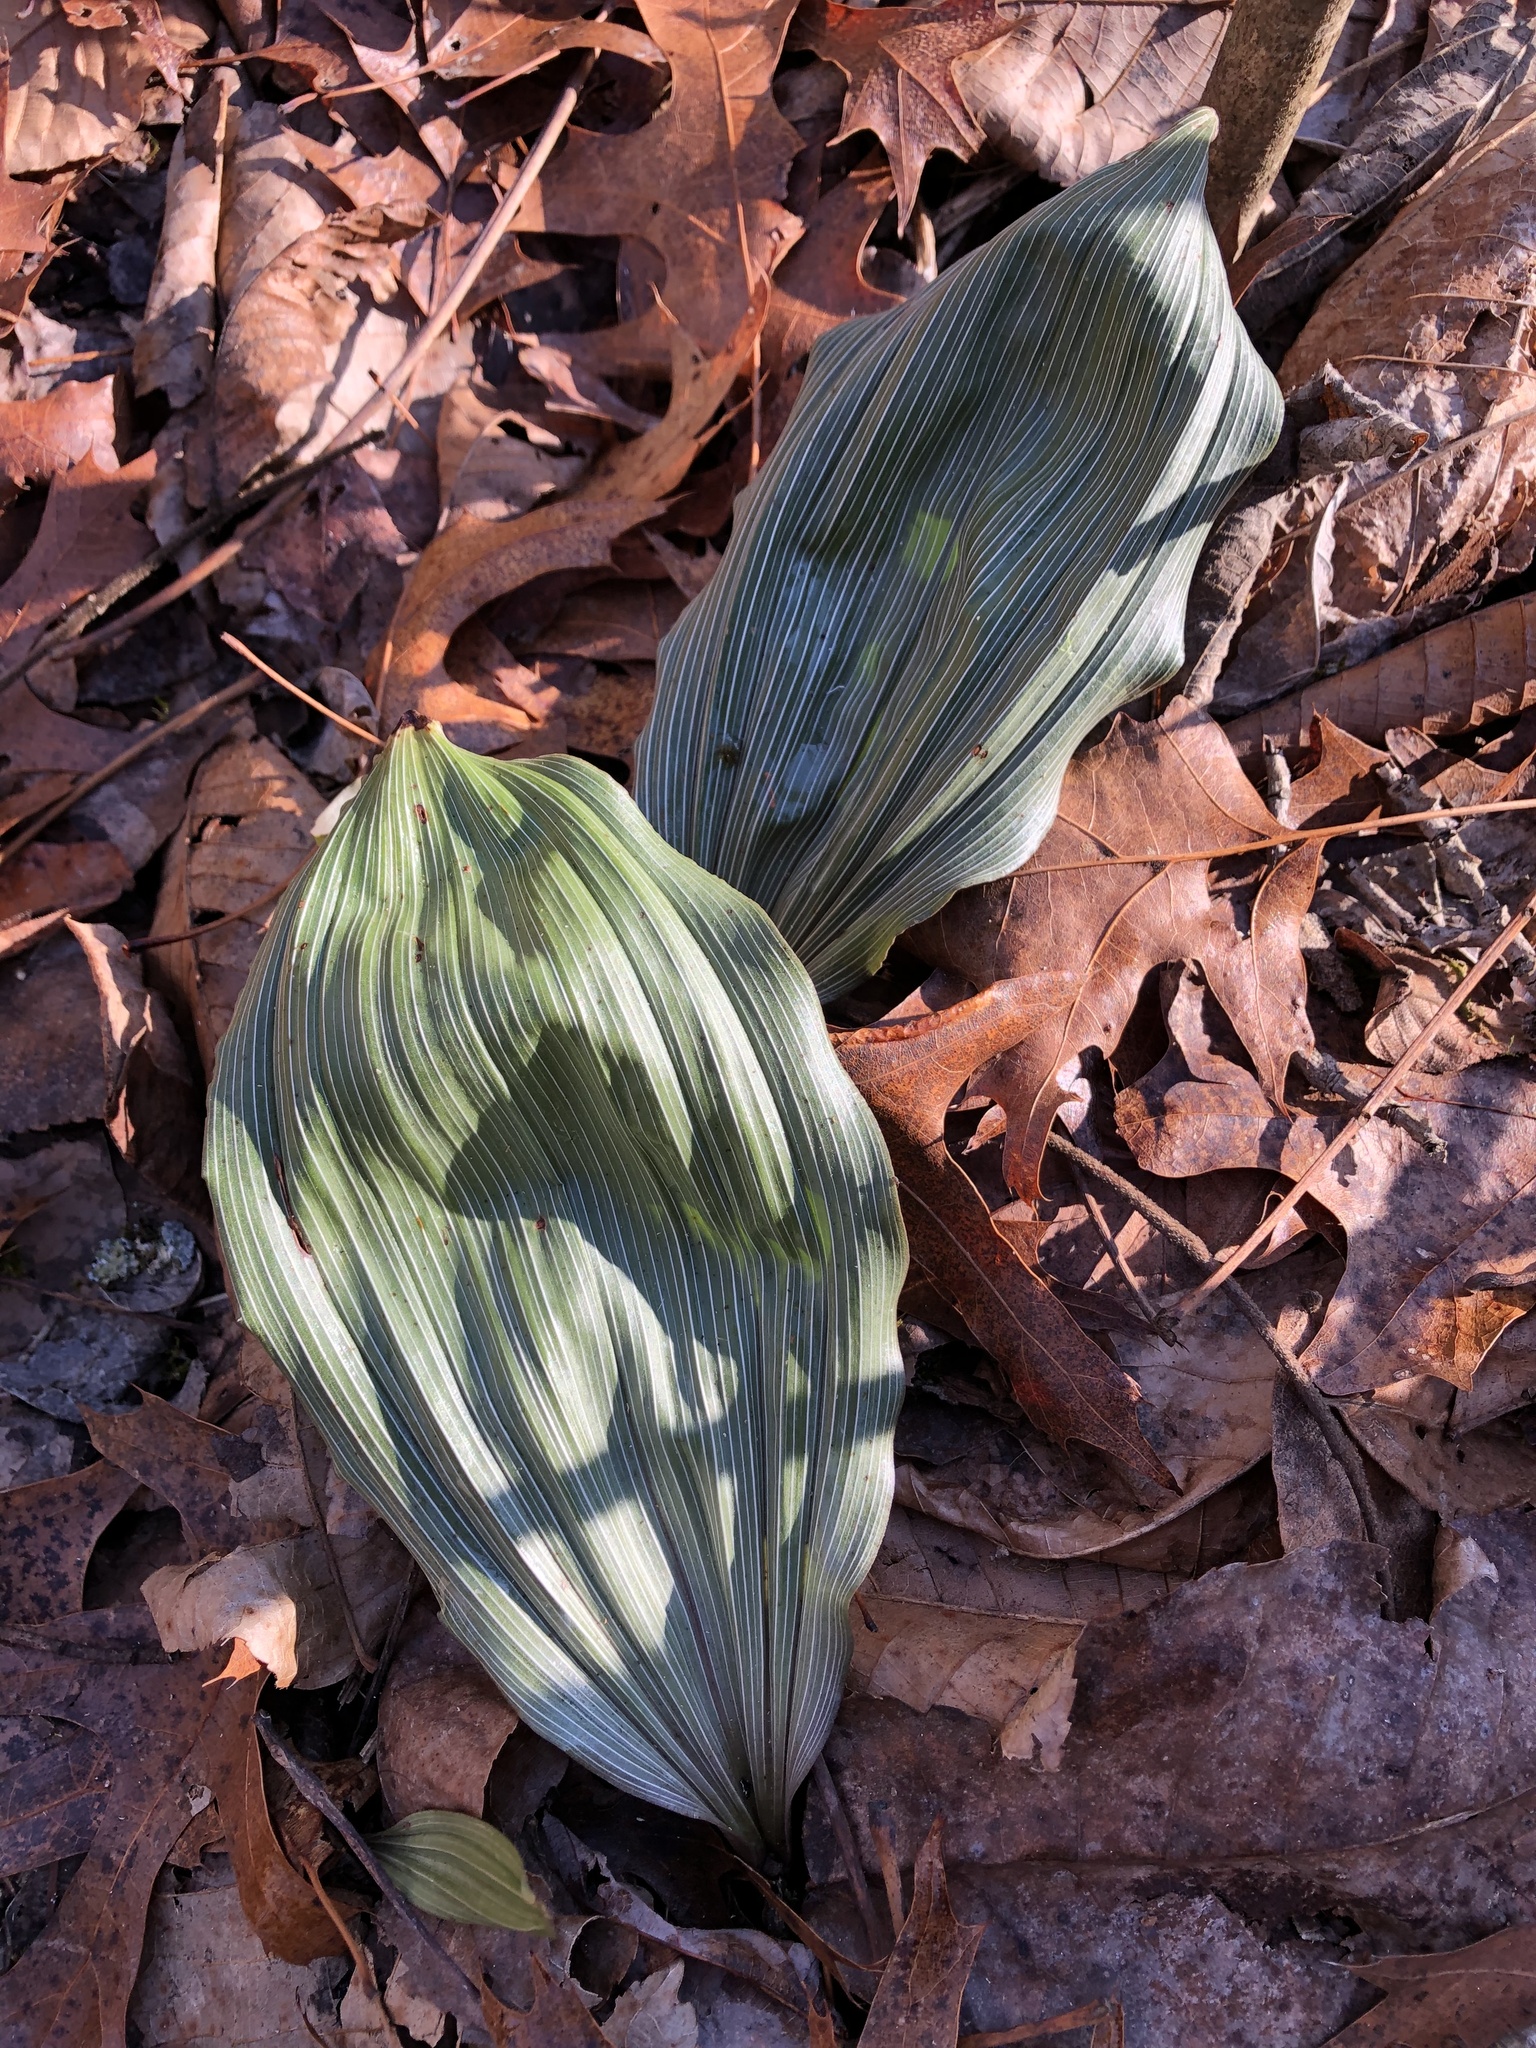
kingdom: Plantae
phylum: Tracheophyta
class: Liliopsida
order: Asparagales
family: Orchidaceae
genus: Aplectrum
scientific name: Aplectrum hyemale
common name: Adam-and-eve
